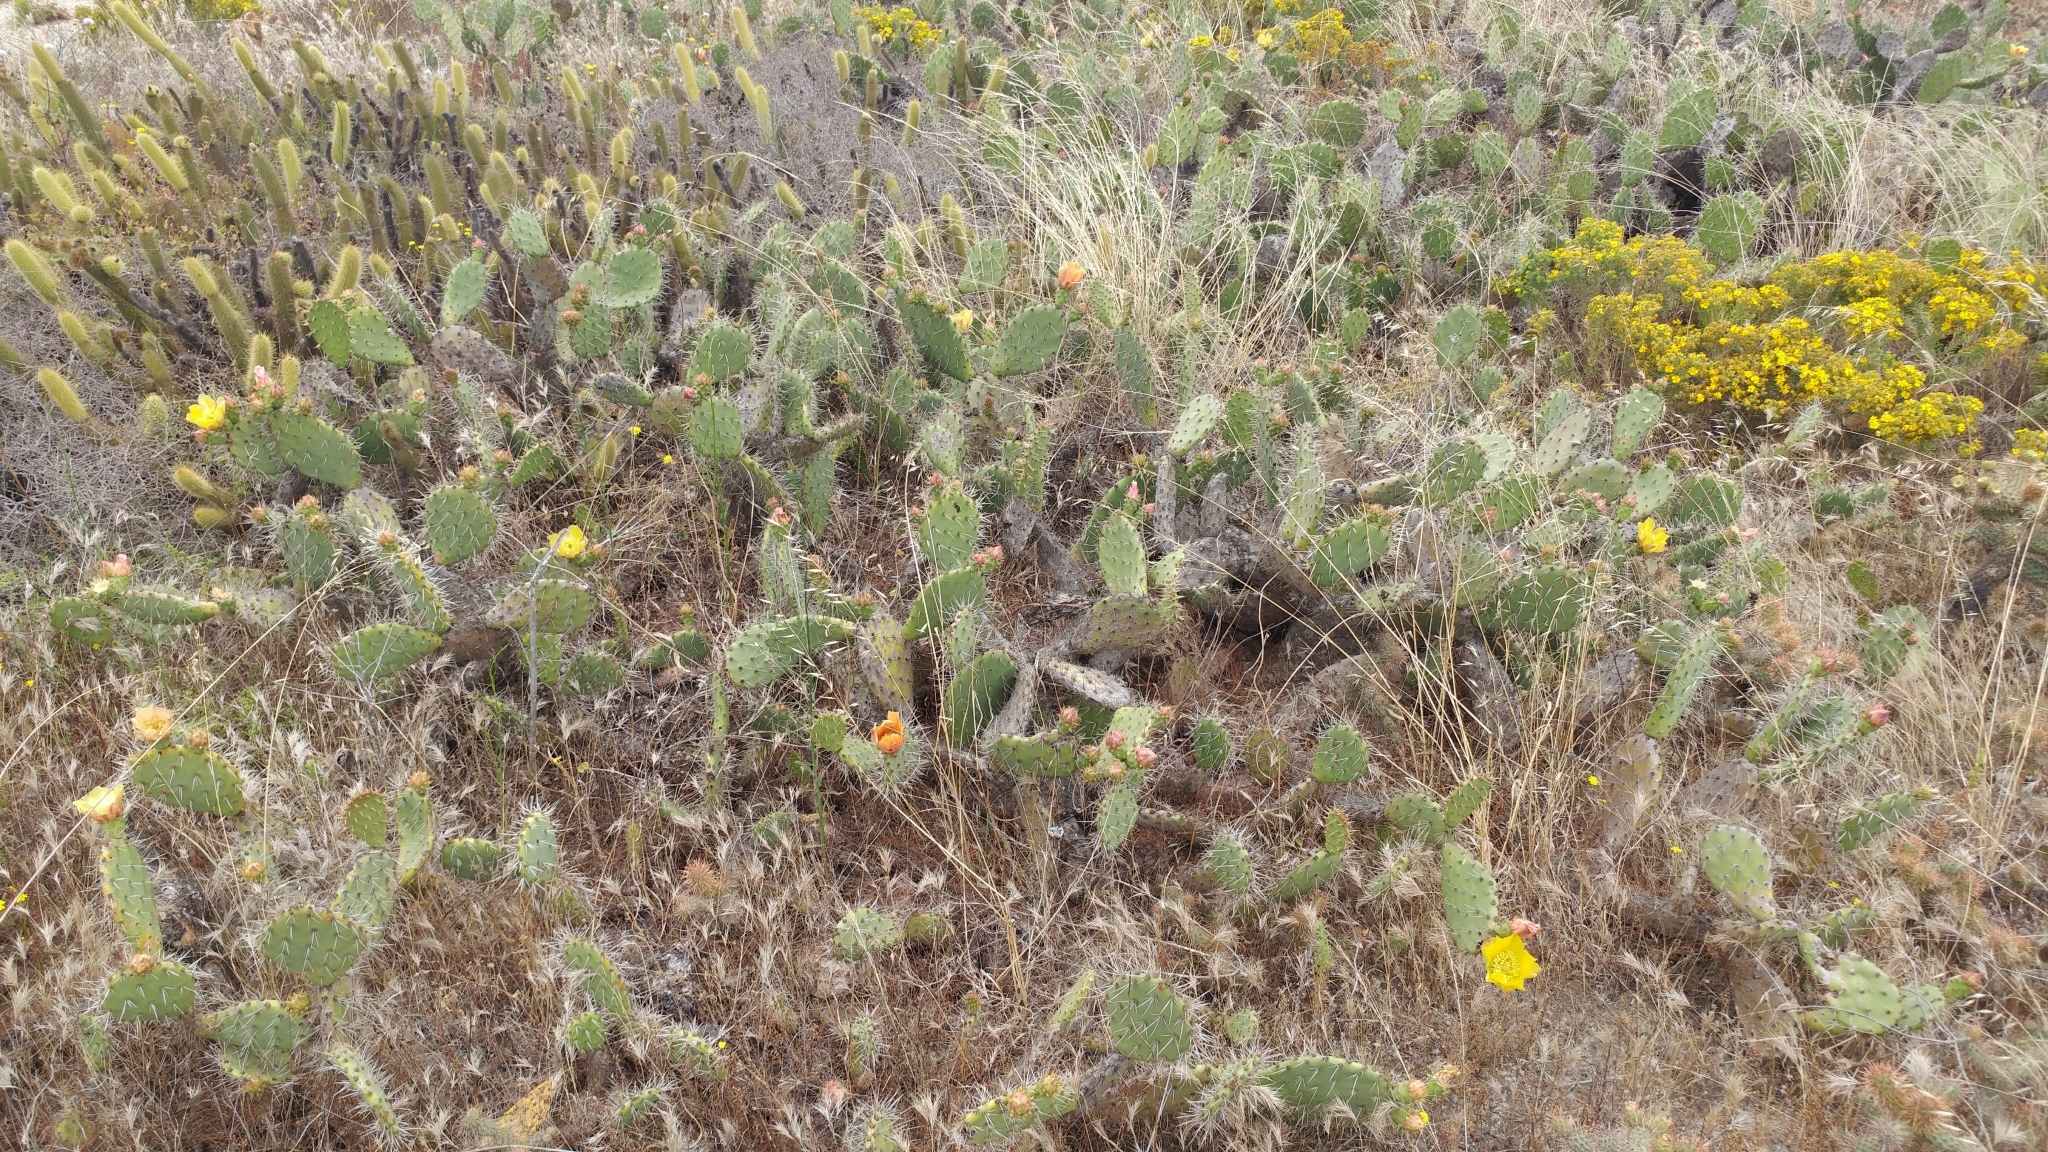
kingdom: Plantae
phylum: Tracheophyta
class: Magnoliopsida
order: Caryophyllales
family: Cactaceae
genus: Opuntia
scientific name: Opuntia littoralis
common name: Coastal prickly-pear
